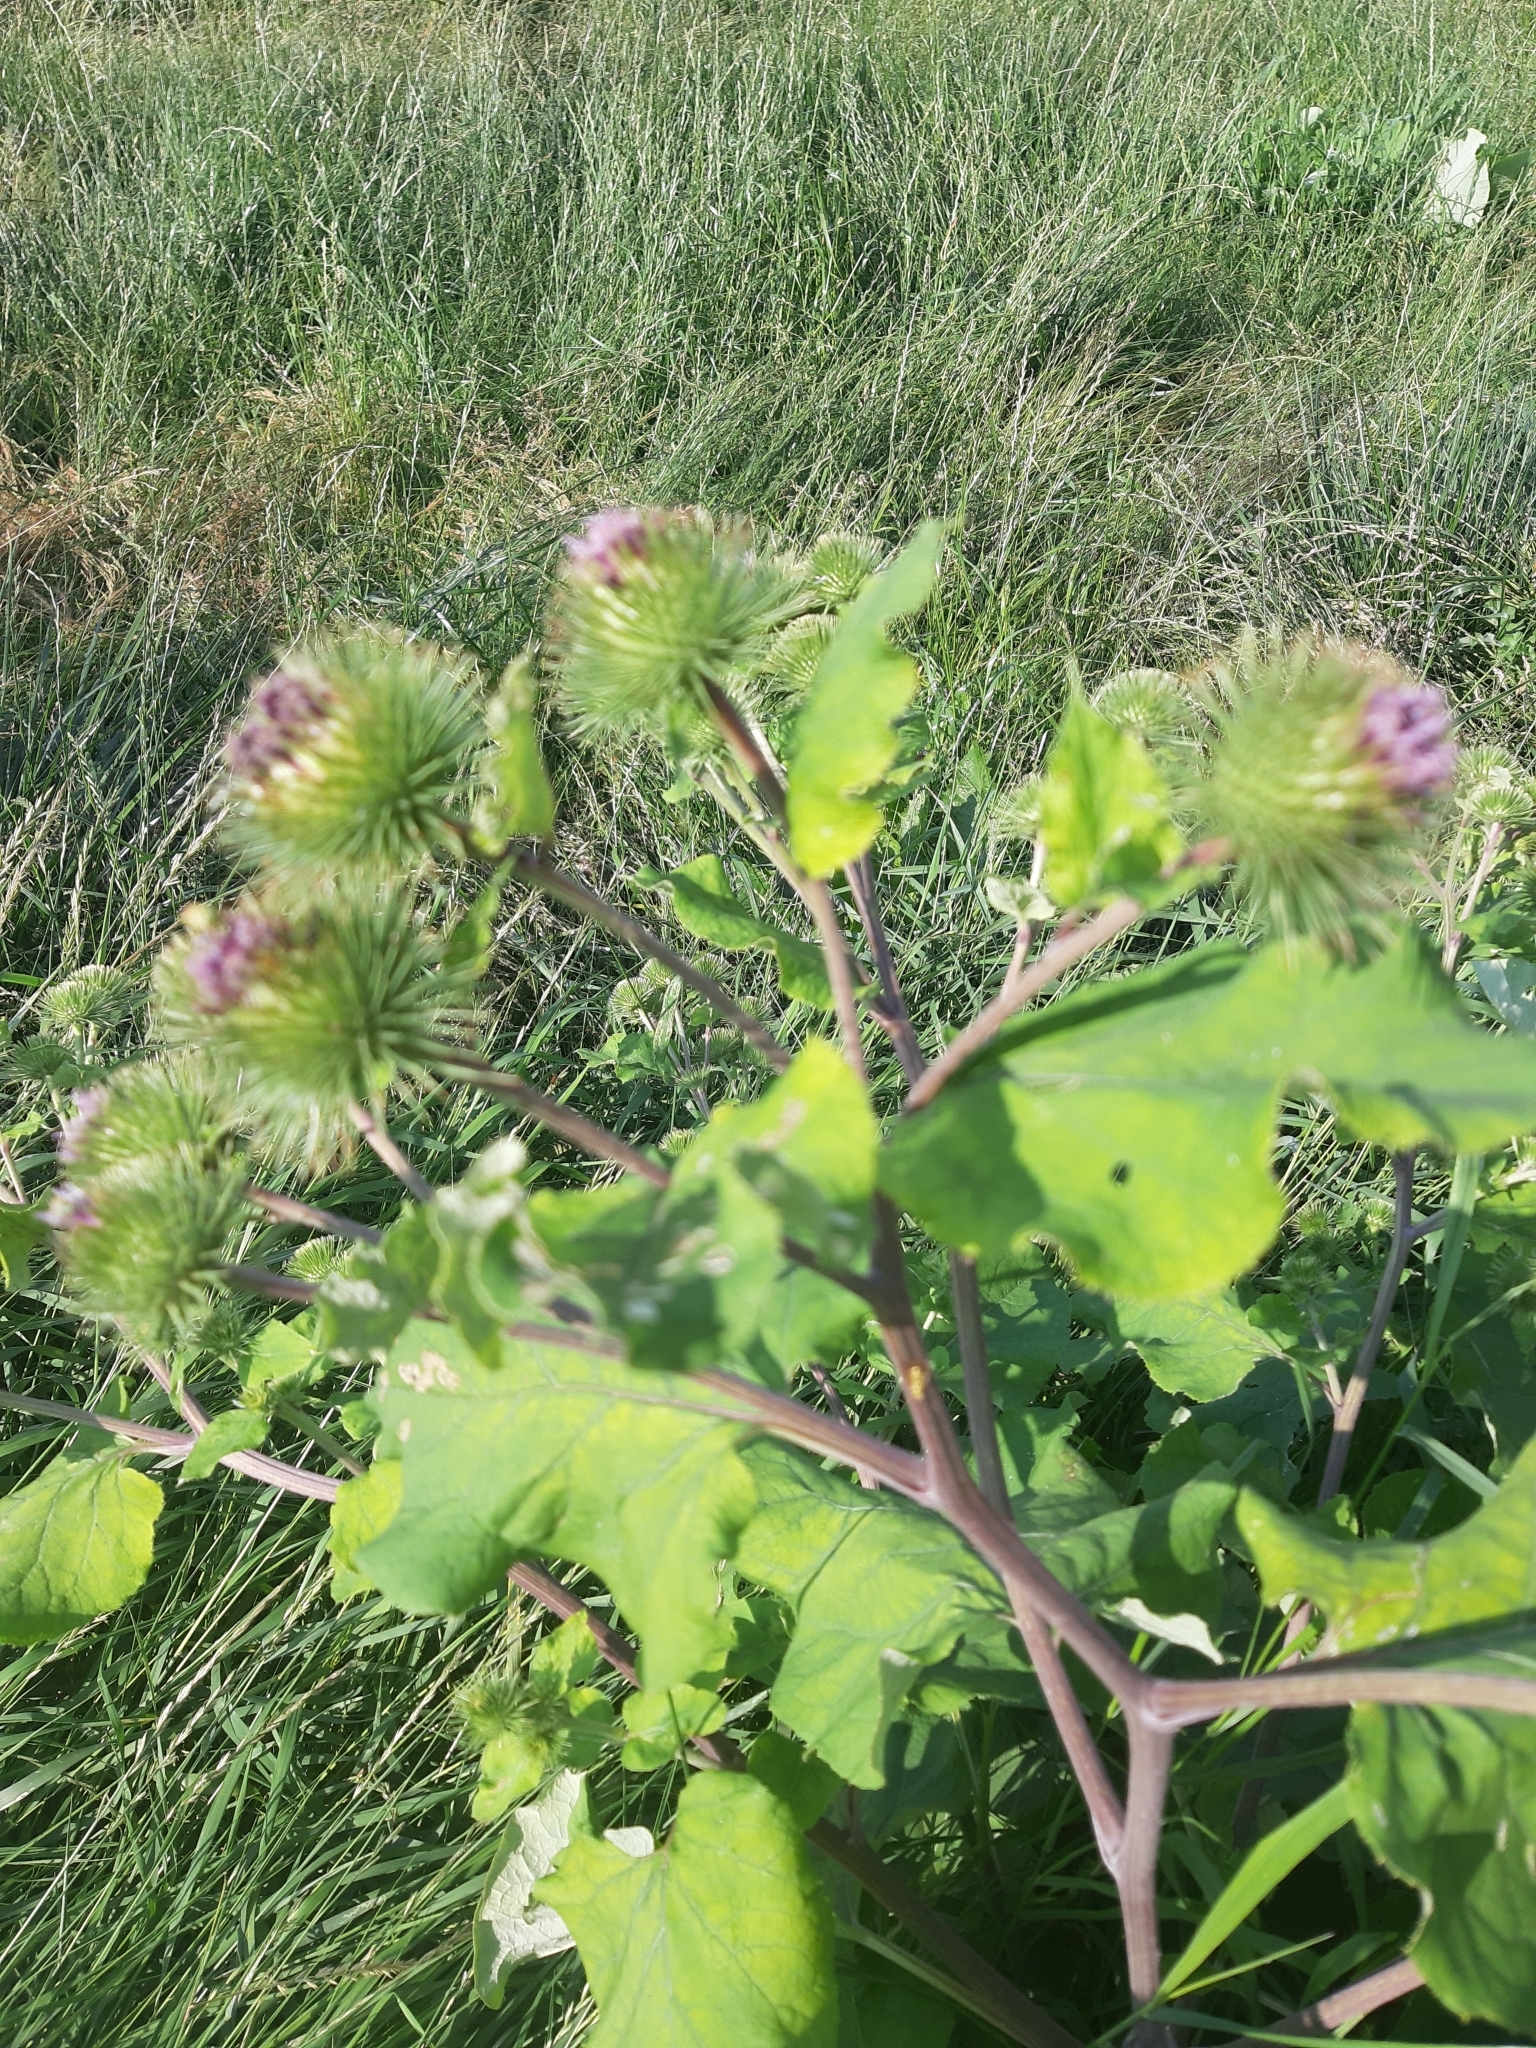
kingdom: Plantae
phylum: Tracheophyta
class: Magnoliopsida
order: Asterales
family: Asteraceae
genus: Arctium
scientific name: Arctium lappa
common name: Greater burdock
